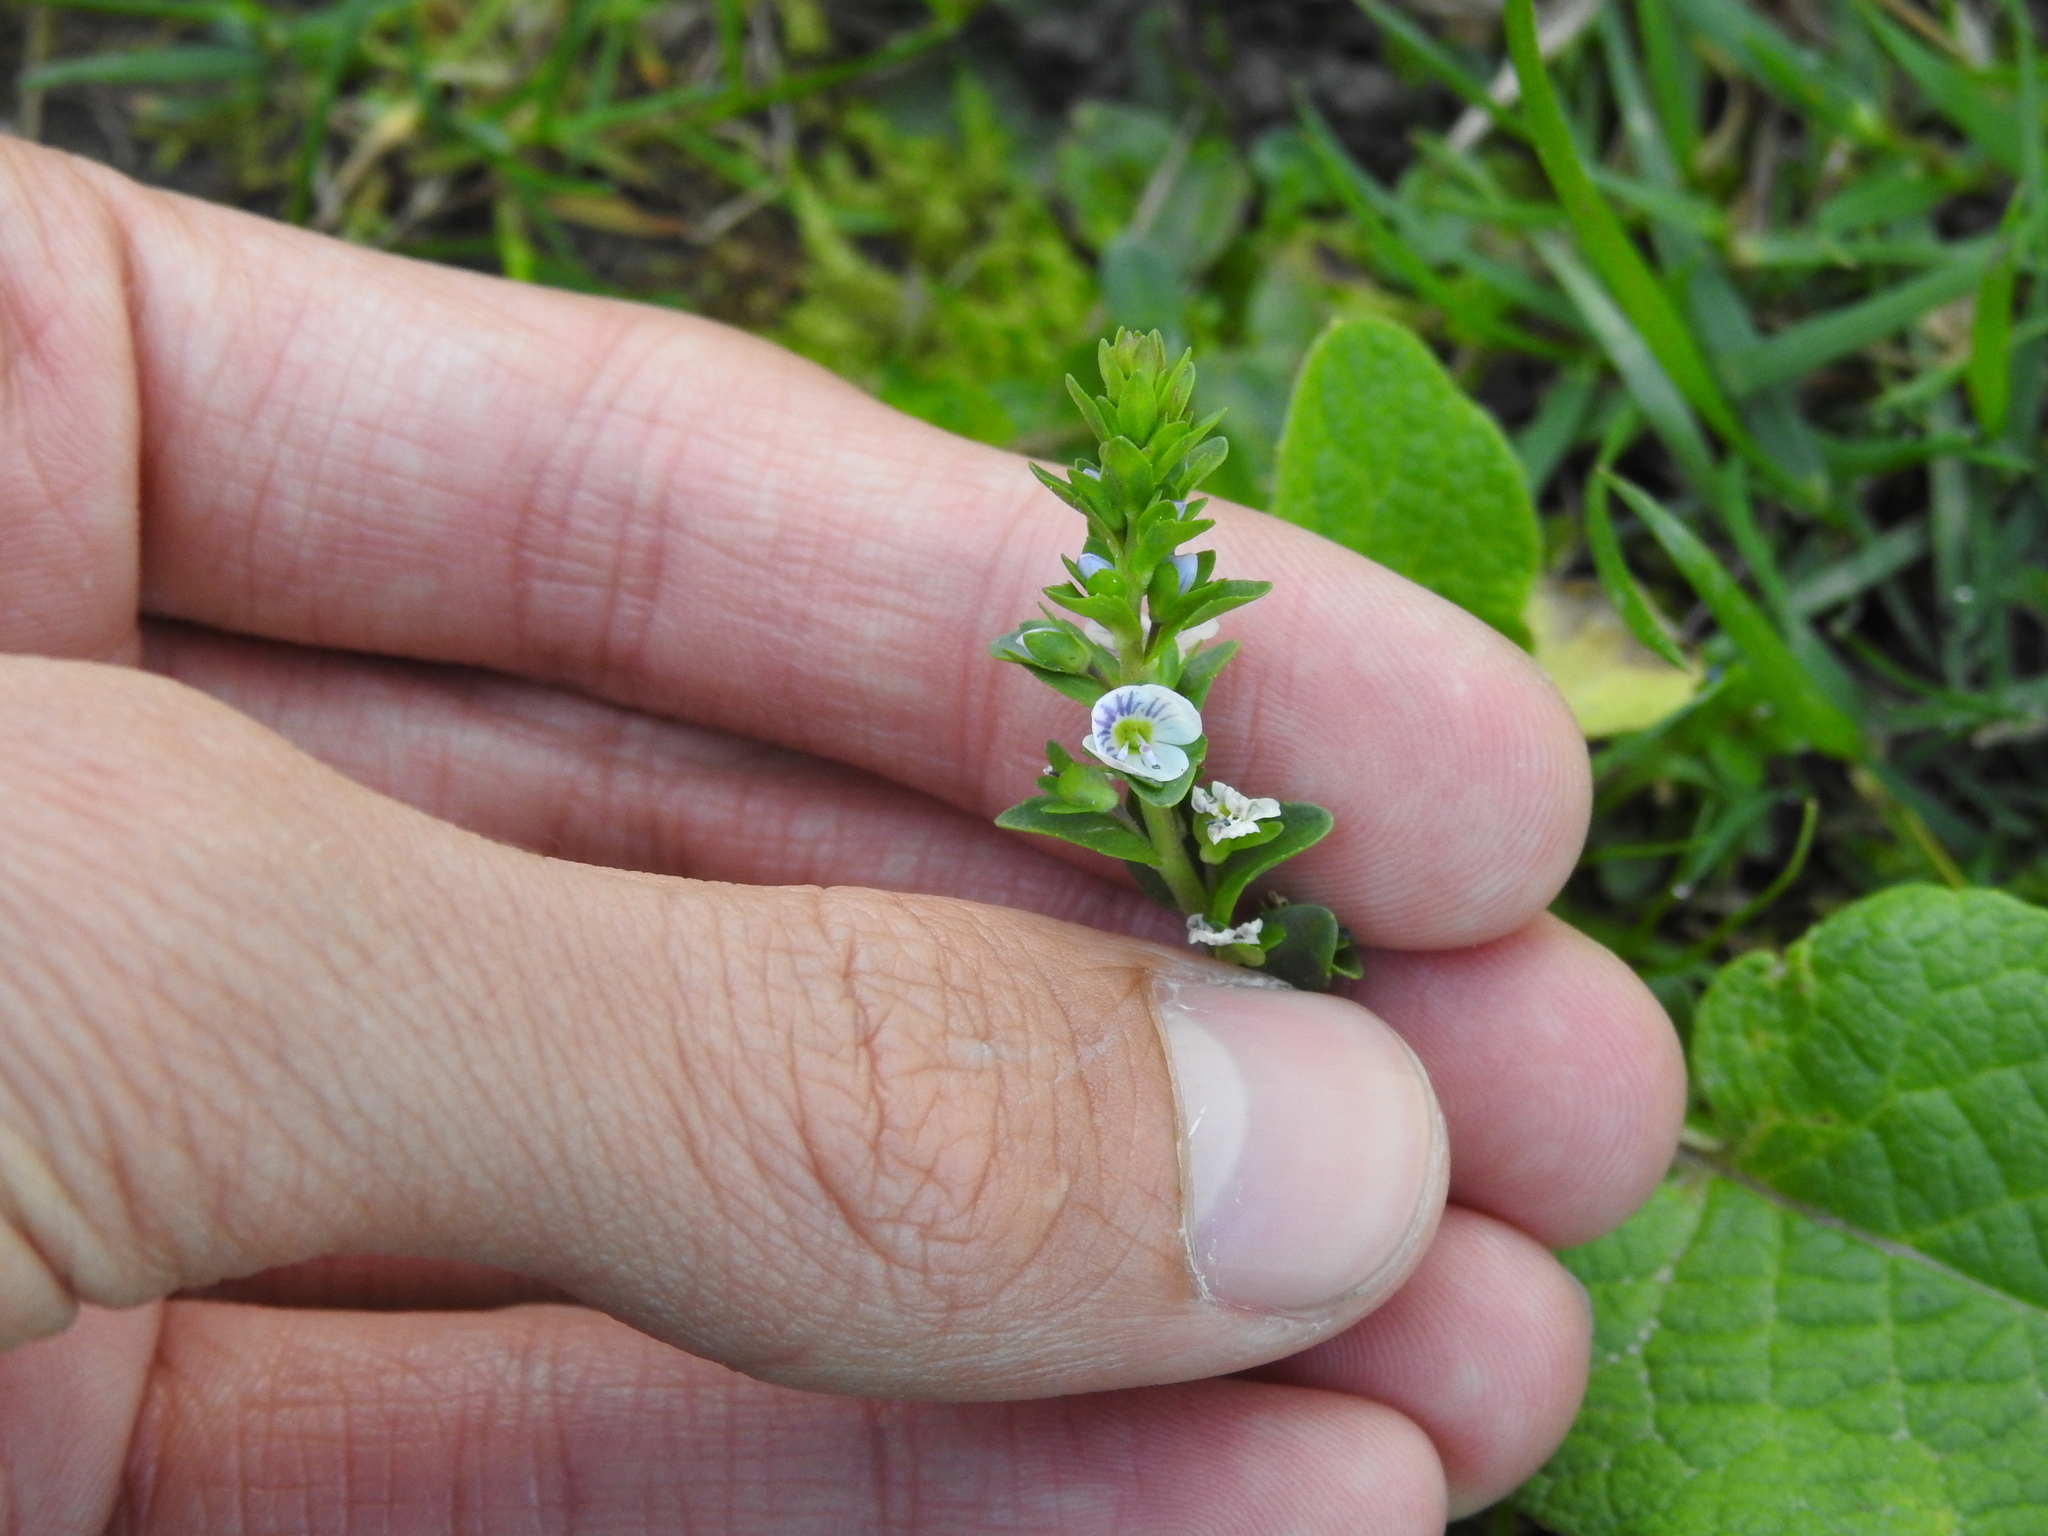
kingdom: Plantae
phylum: Tracheophyta
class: Magnoliopsida
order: Lamiales
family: Plantaginaceae
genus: Veronica
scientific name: Veronica serpyllifolia
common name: Thyme-leaved speedwell
